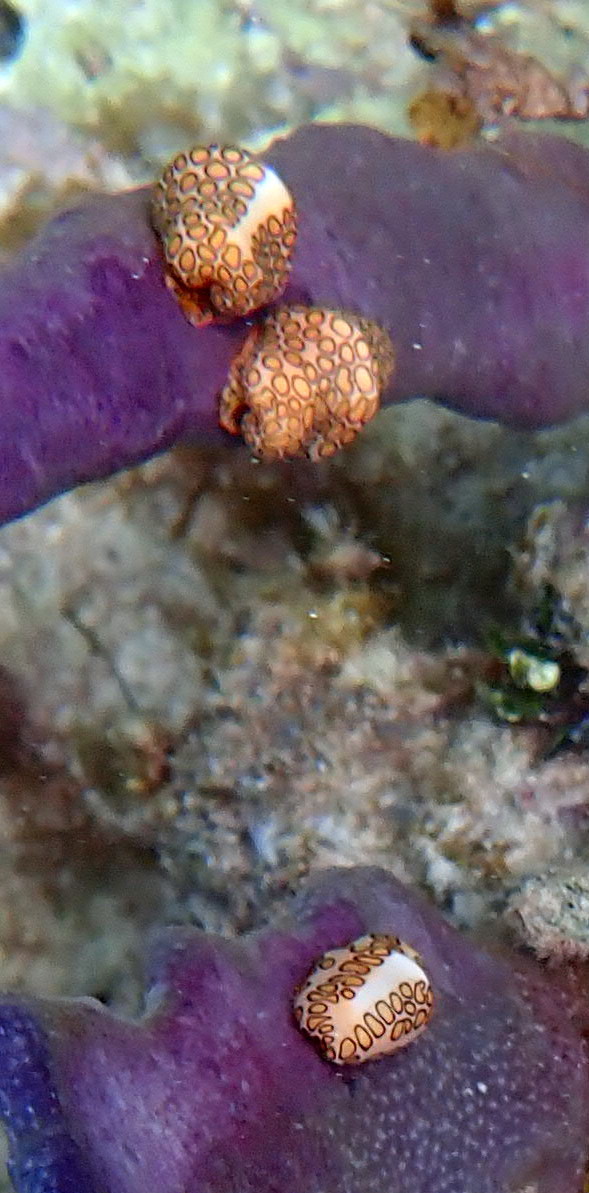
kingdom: Animalia
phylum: Mollusca
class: Gastropoda
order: Littorinimorpha
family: Ovulidae
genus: Cyphoma
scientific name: Cyphoma gibbosum
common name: Flamingo tongue
